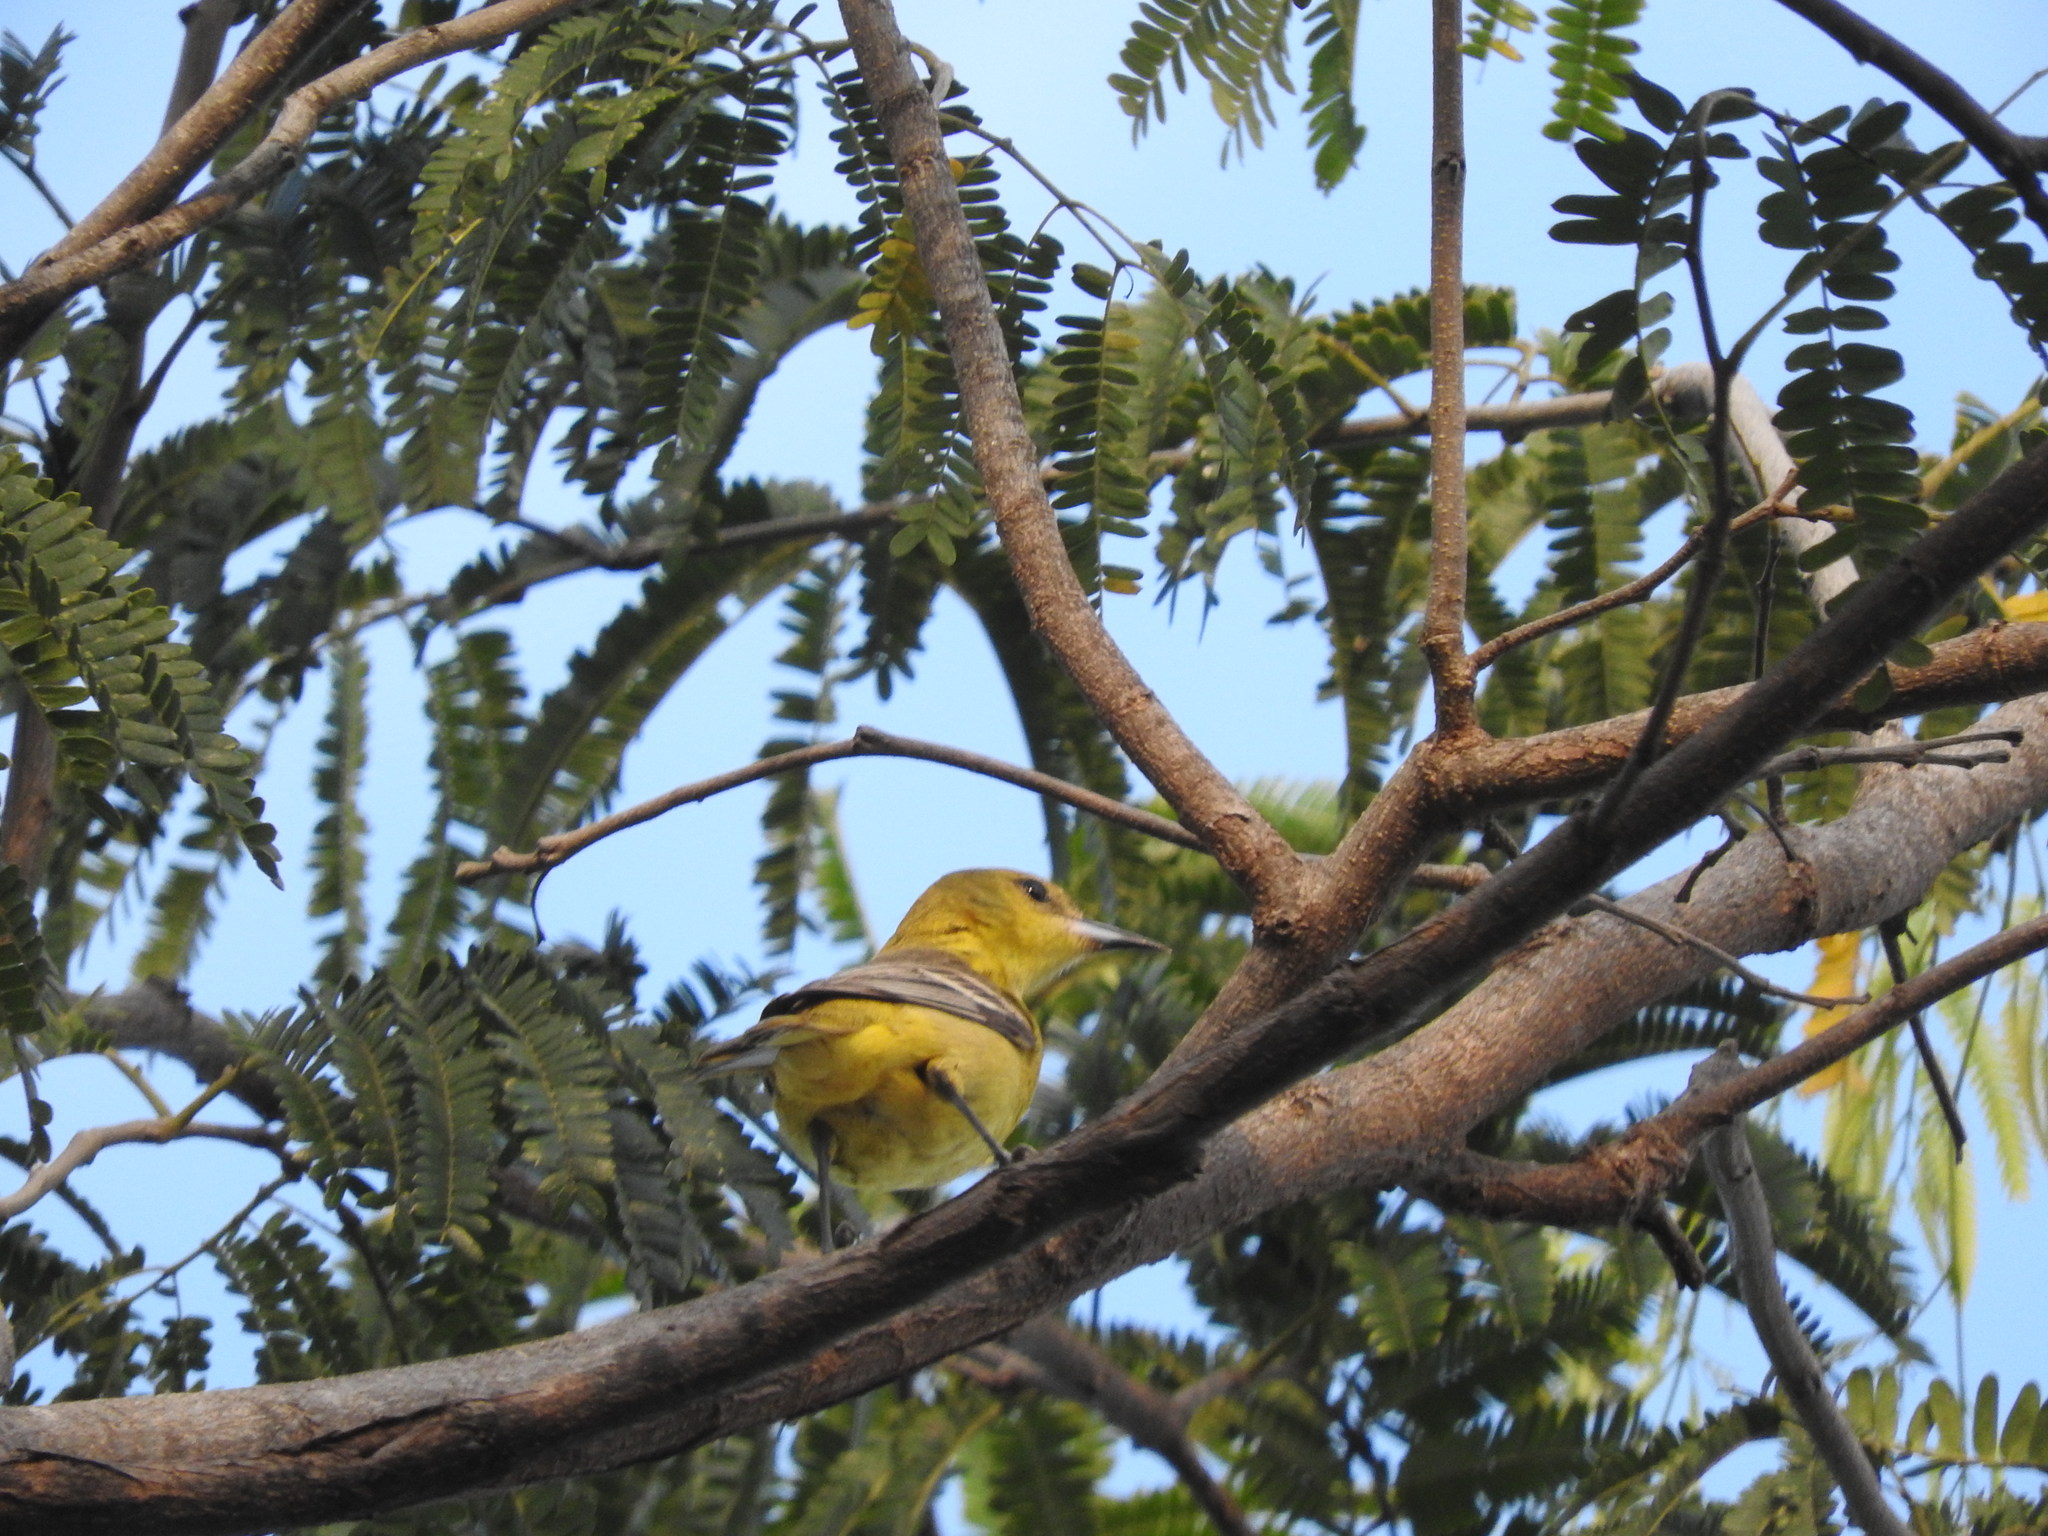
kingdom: Animalia
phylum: Chordata
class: Aves
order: Passeriformes
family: Icteridae
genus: Icterus
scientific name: Icterus spurius
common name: Orchard oriole
